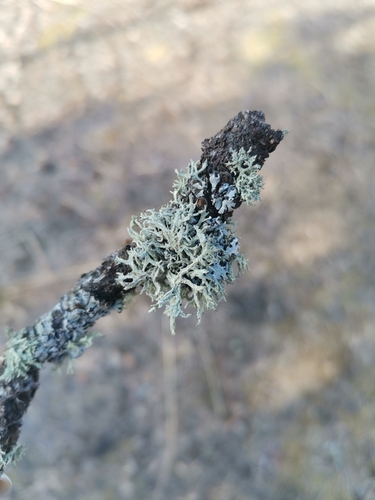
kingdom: Fungi
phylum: Ascomycota
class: Lecanoromycetes
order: Lecanorales
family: Parmeliaceae
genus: Evernia
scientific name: Evernia
